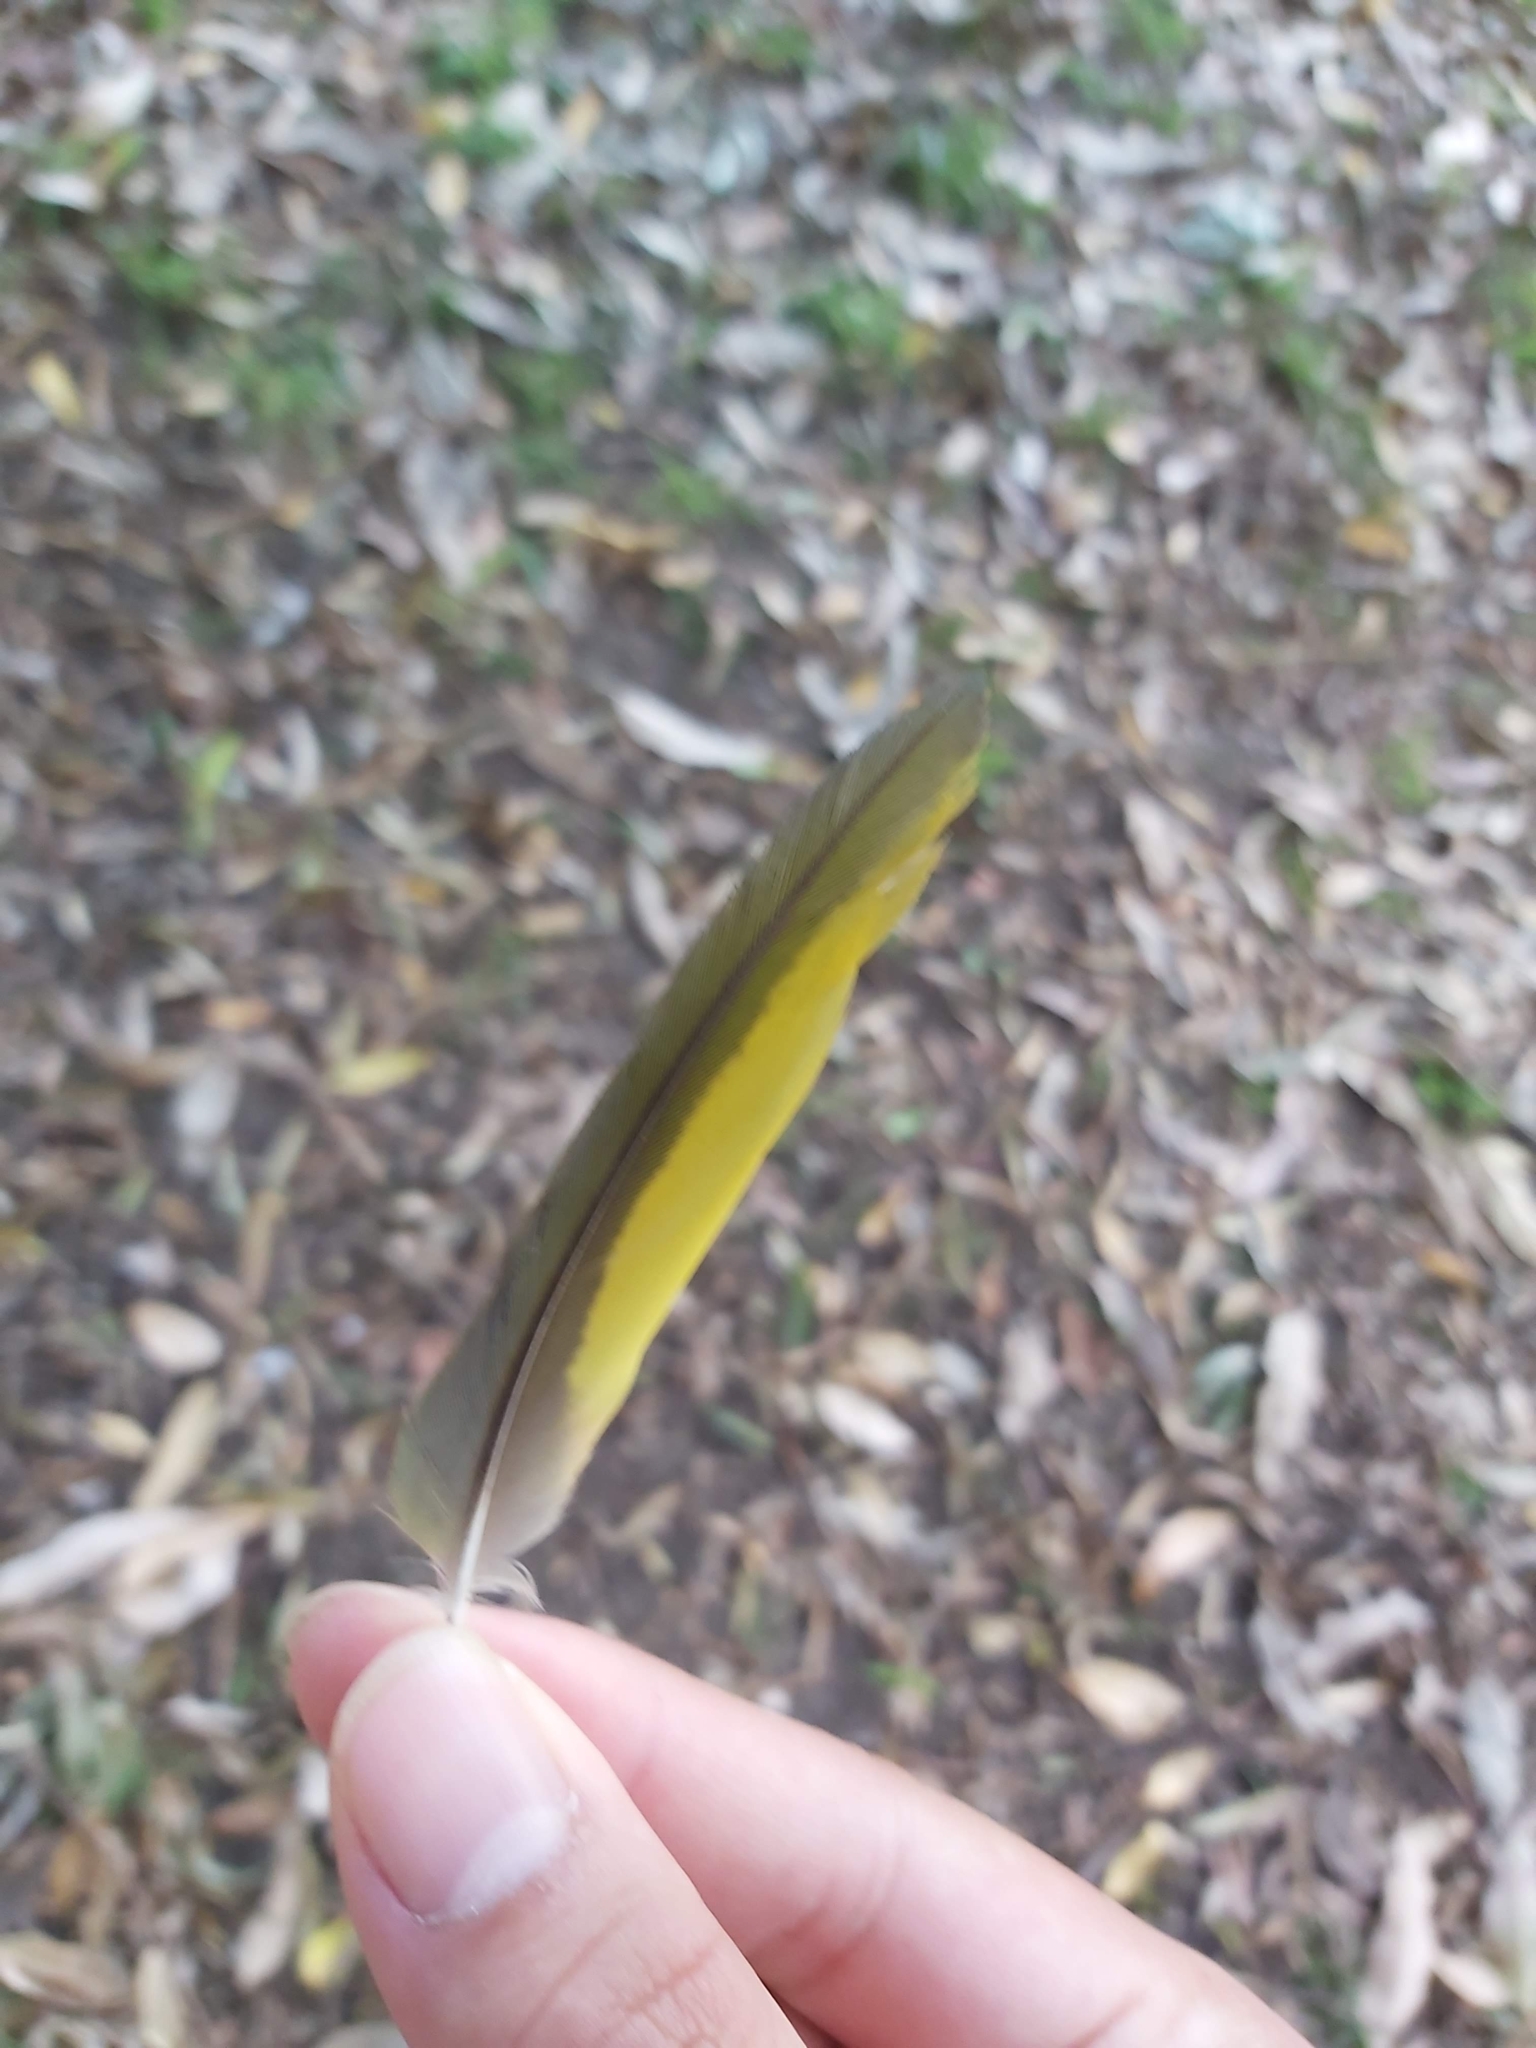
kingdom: Animalia
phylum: Chordata
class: Aves
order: Psittaciformes
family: Psittacidae
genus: Trichoglossus
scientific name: Trichoglossus haematodus
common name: Coconut lorikeet
